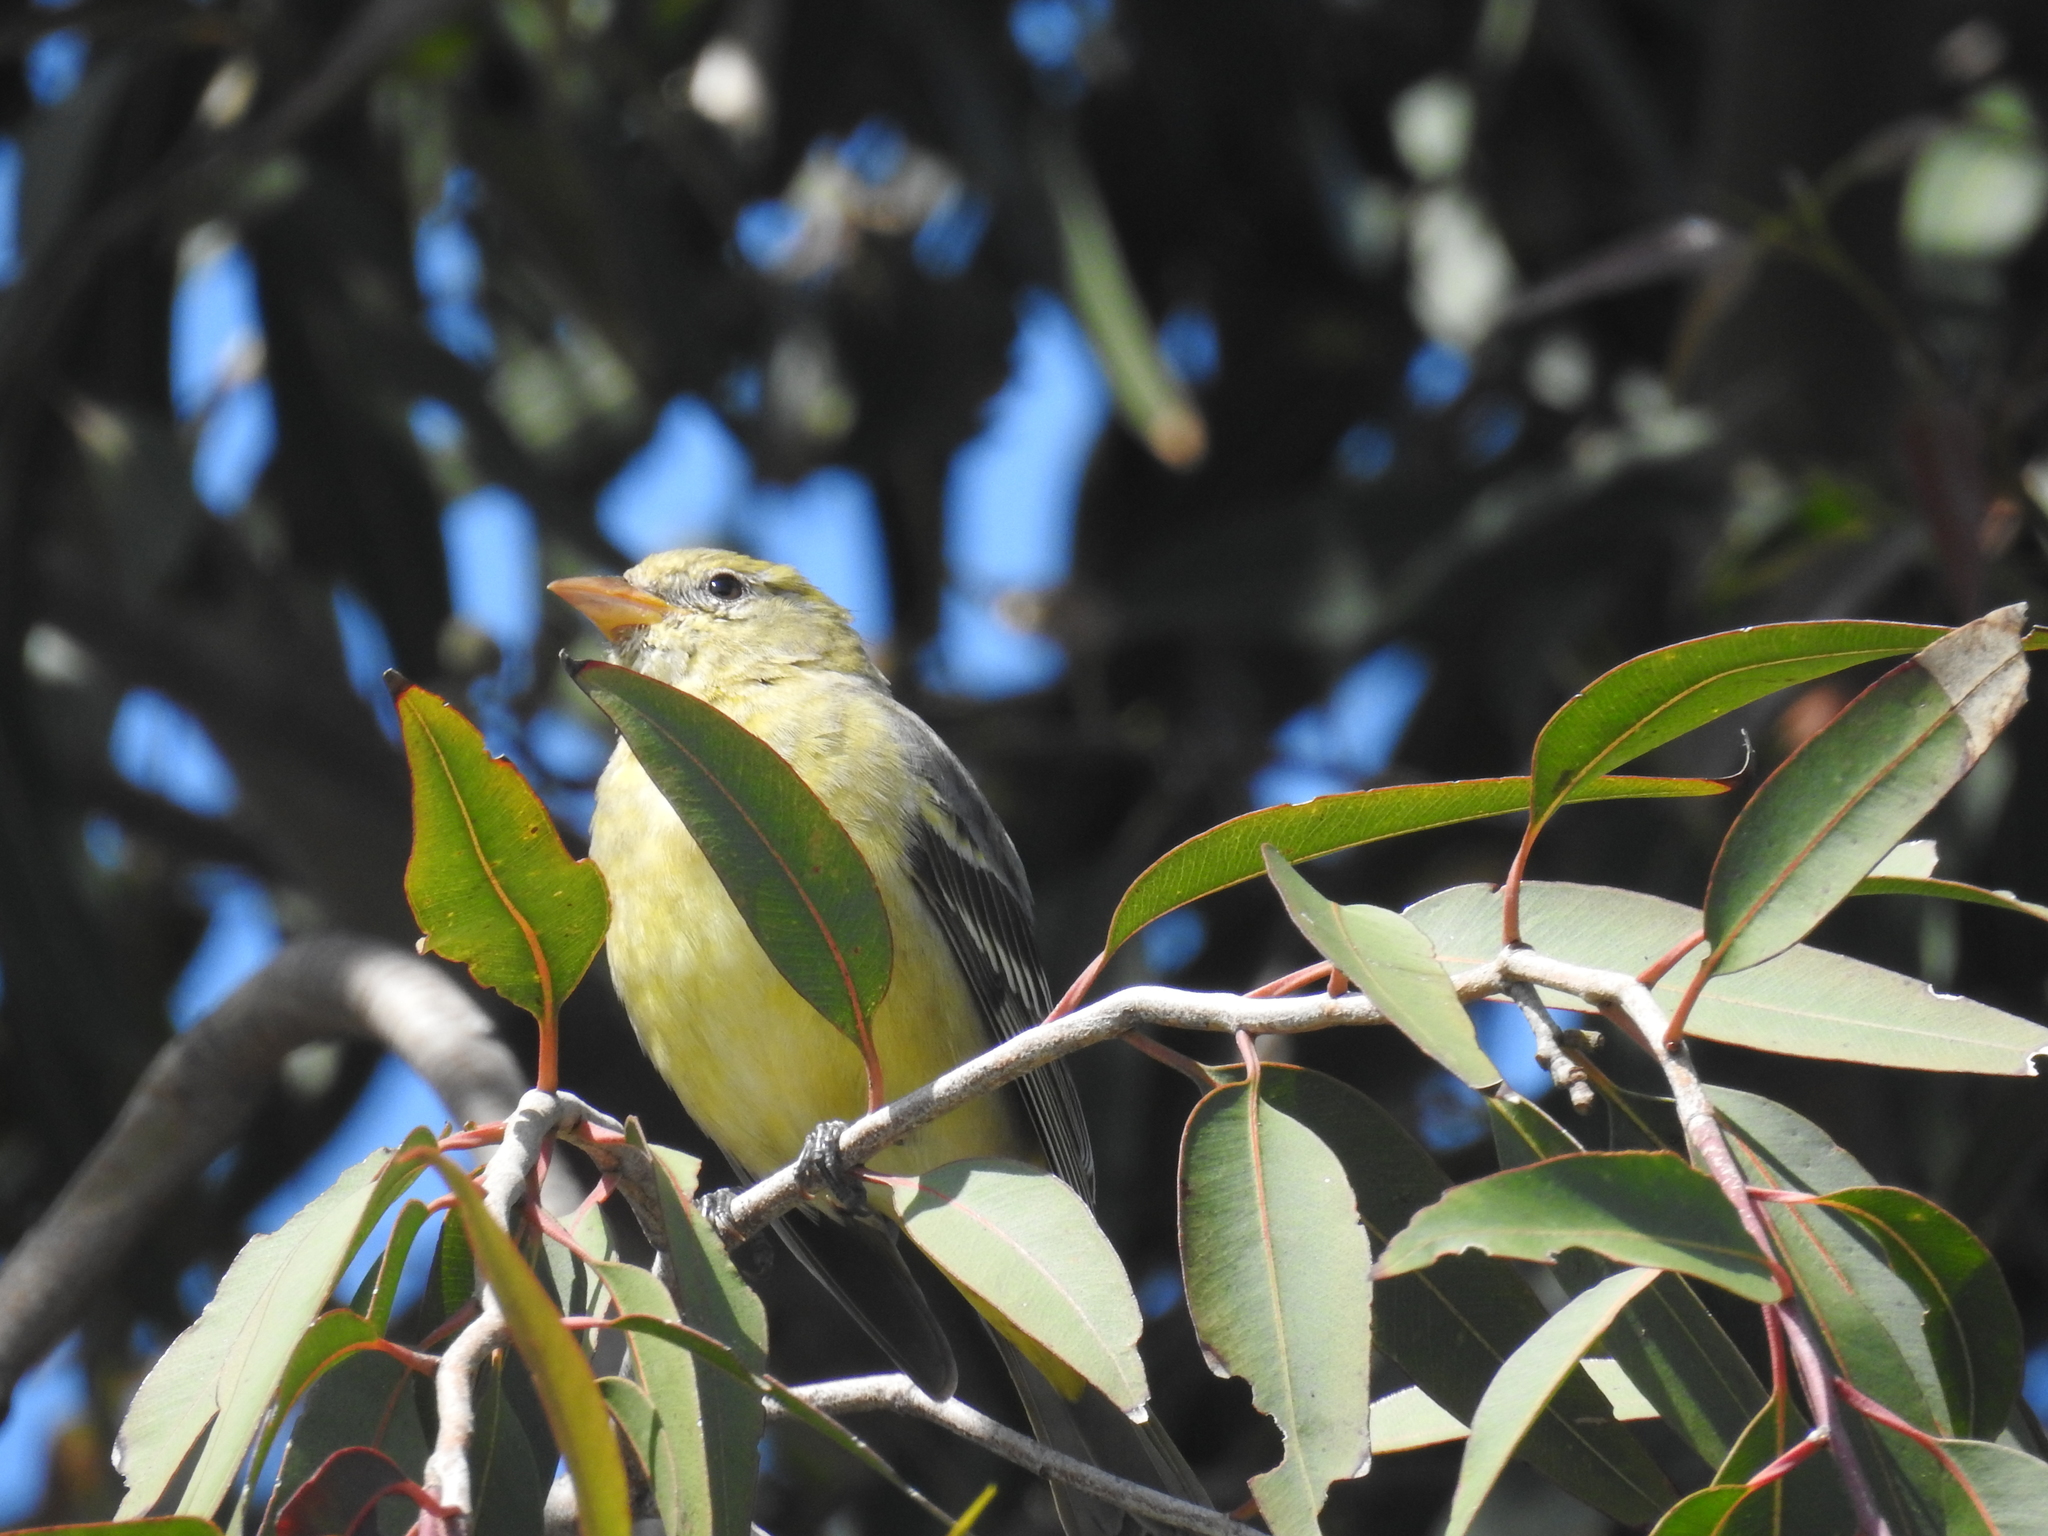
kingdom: Animalia
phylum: Chordata
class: Aves
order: Passeriformes
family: Cardinalidae
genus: Piranga
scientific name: Piranga ludoviciana
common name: Western tanager
